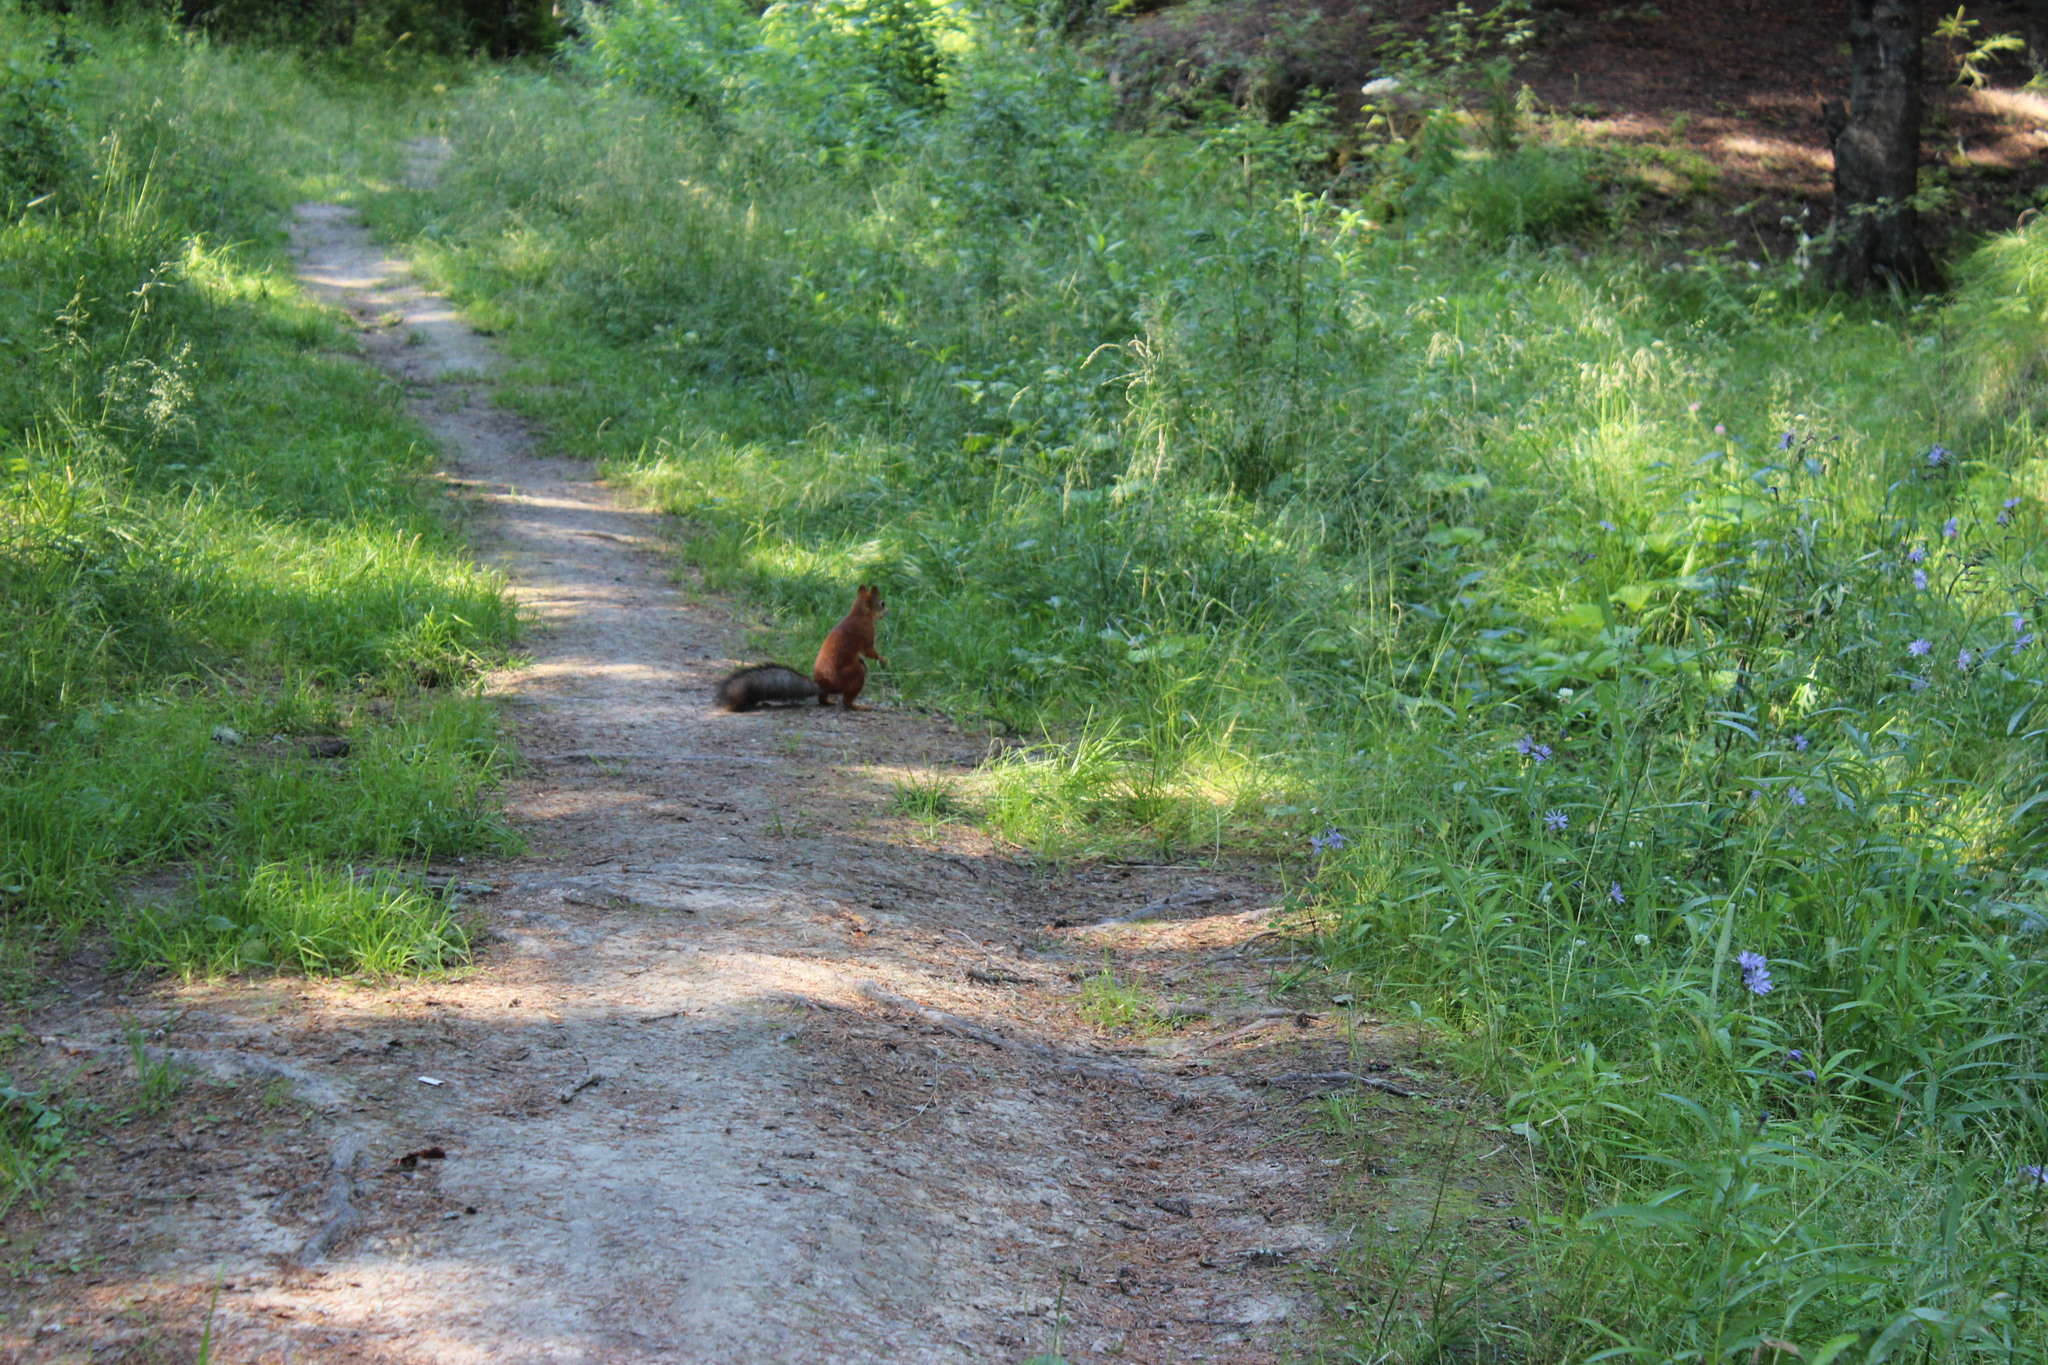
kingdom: Animalia
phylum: Chordata
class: Mammalia
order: Rodentia
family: Sciuridae
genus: Sciurus
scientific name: Sciurus vulgaris
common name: Eurasian red squirrel
